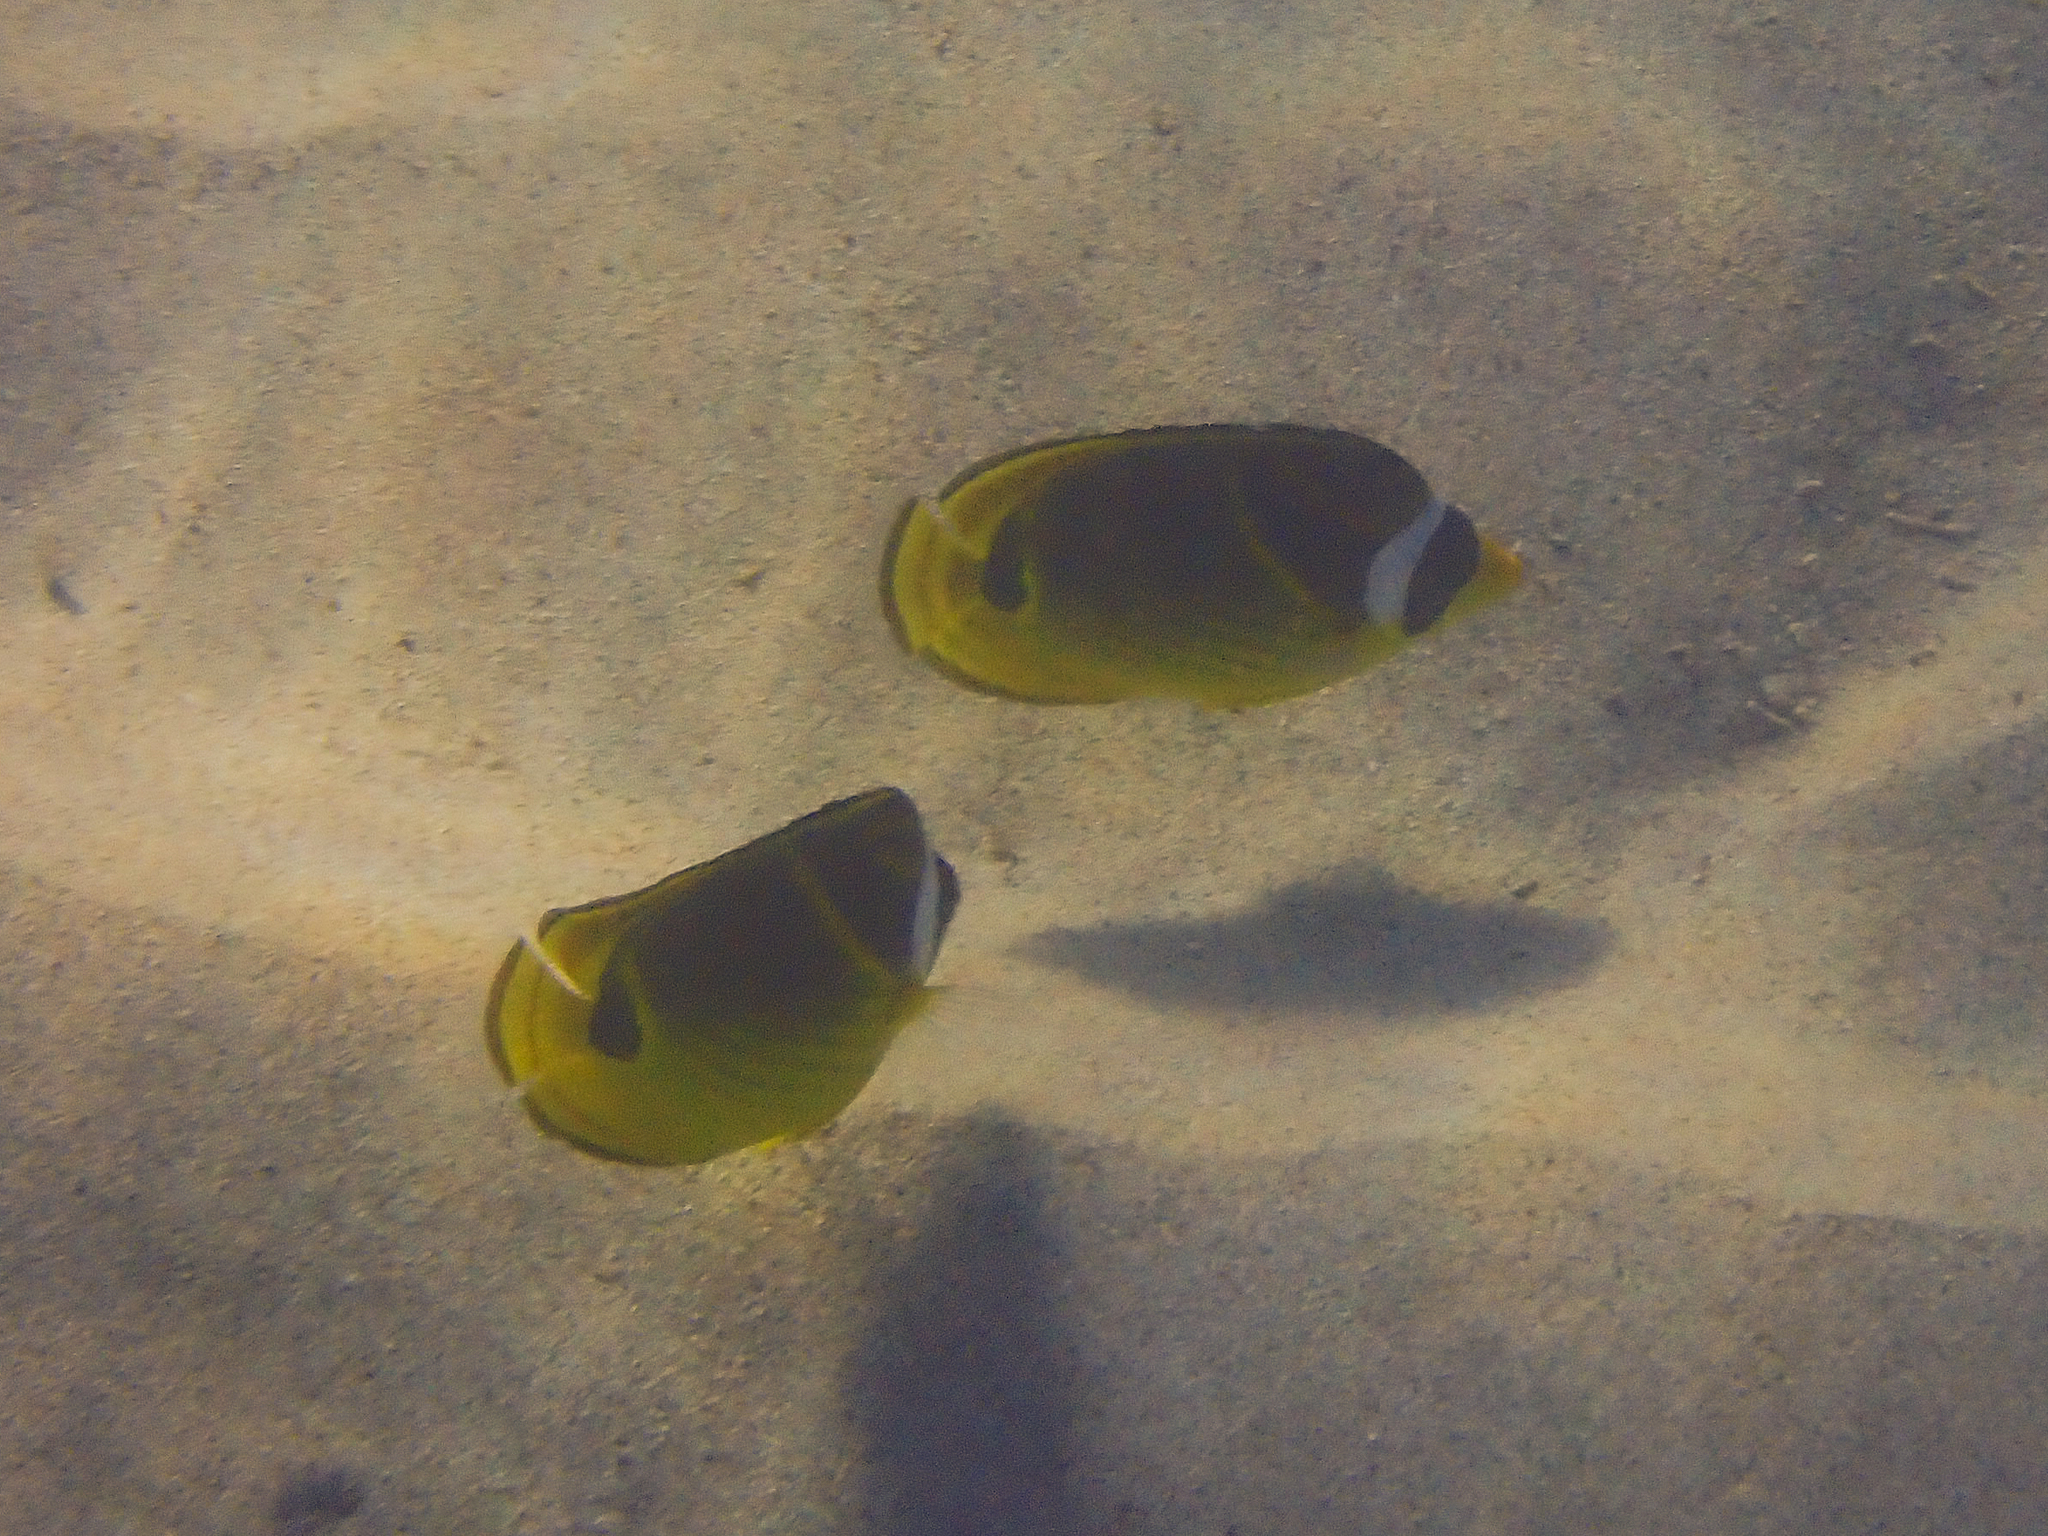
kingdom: Animalia
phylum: Chordata
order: Perciformes
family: Chaetodontidae
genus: Chaetodon
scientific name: Chaetodon lunula
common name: Raccoon butterflyfish
